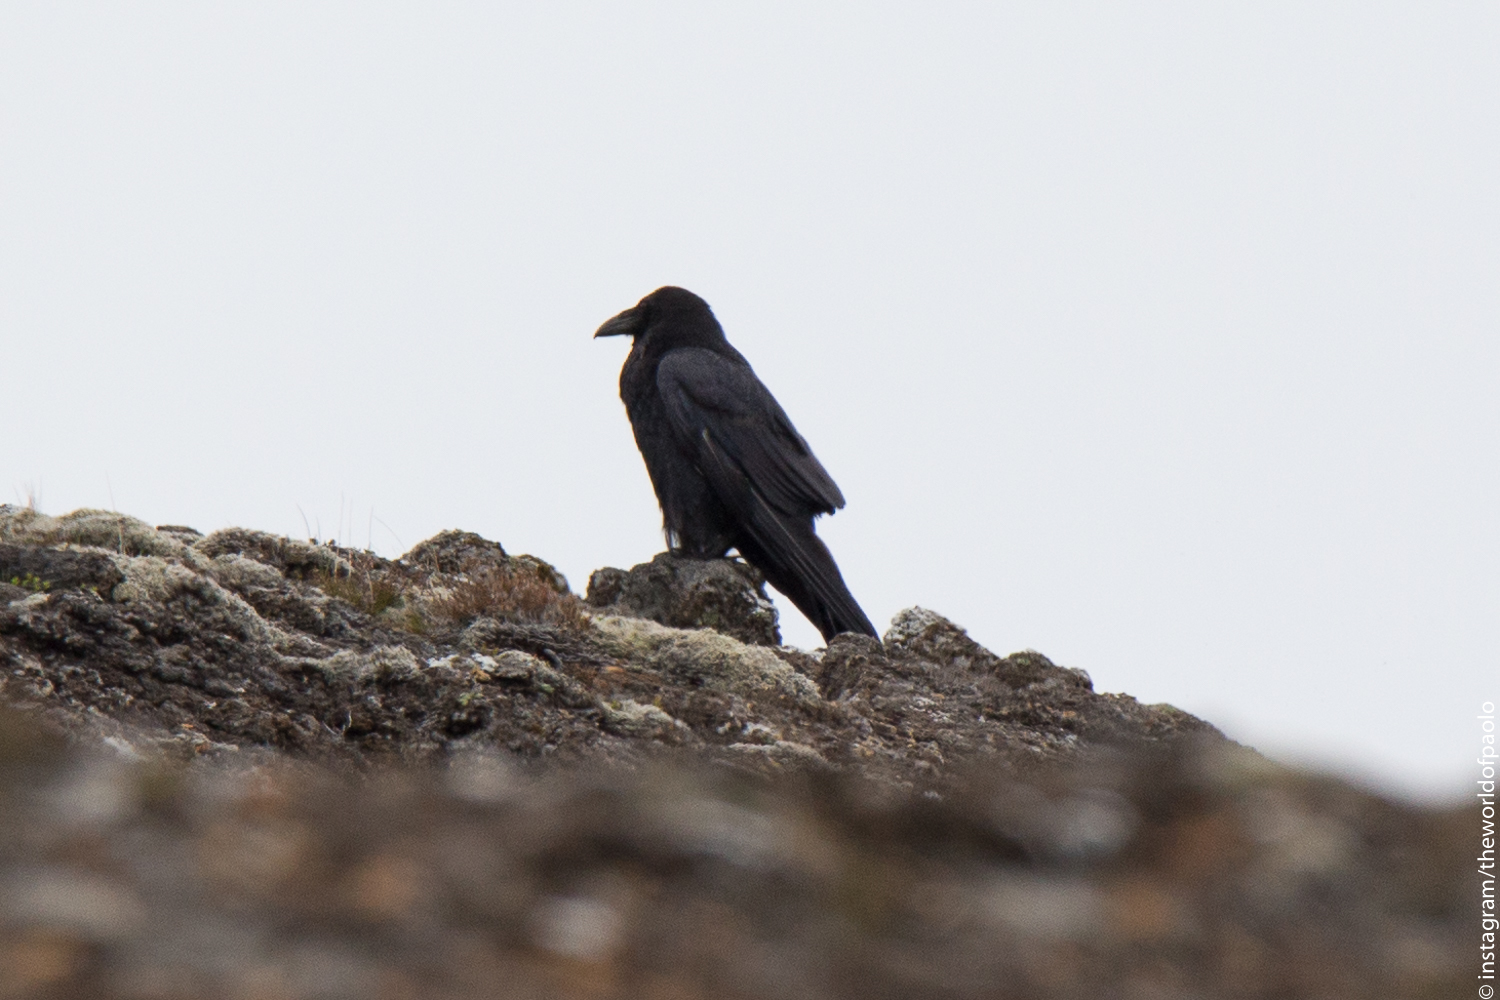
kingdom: Animalia
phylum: Chordata
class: Aves
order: Passeriformes
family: Corvidae
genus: Corvus
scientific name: Corvus corax
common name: Common raven
